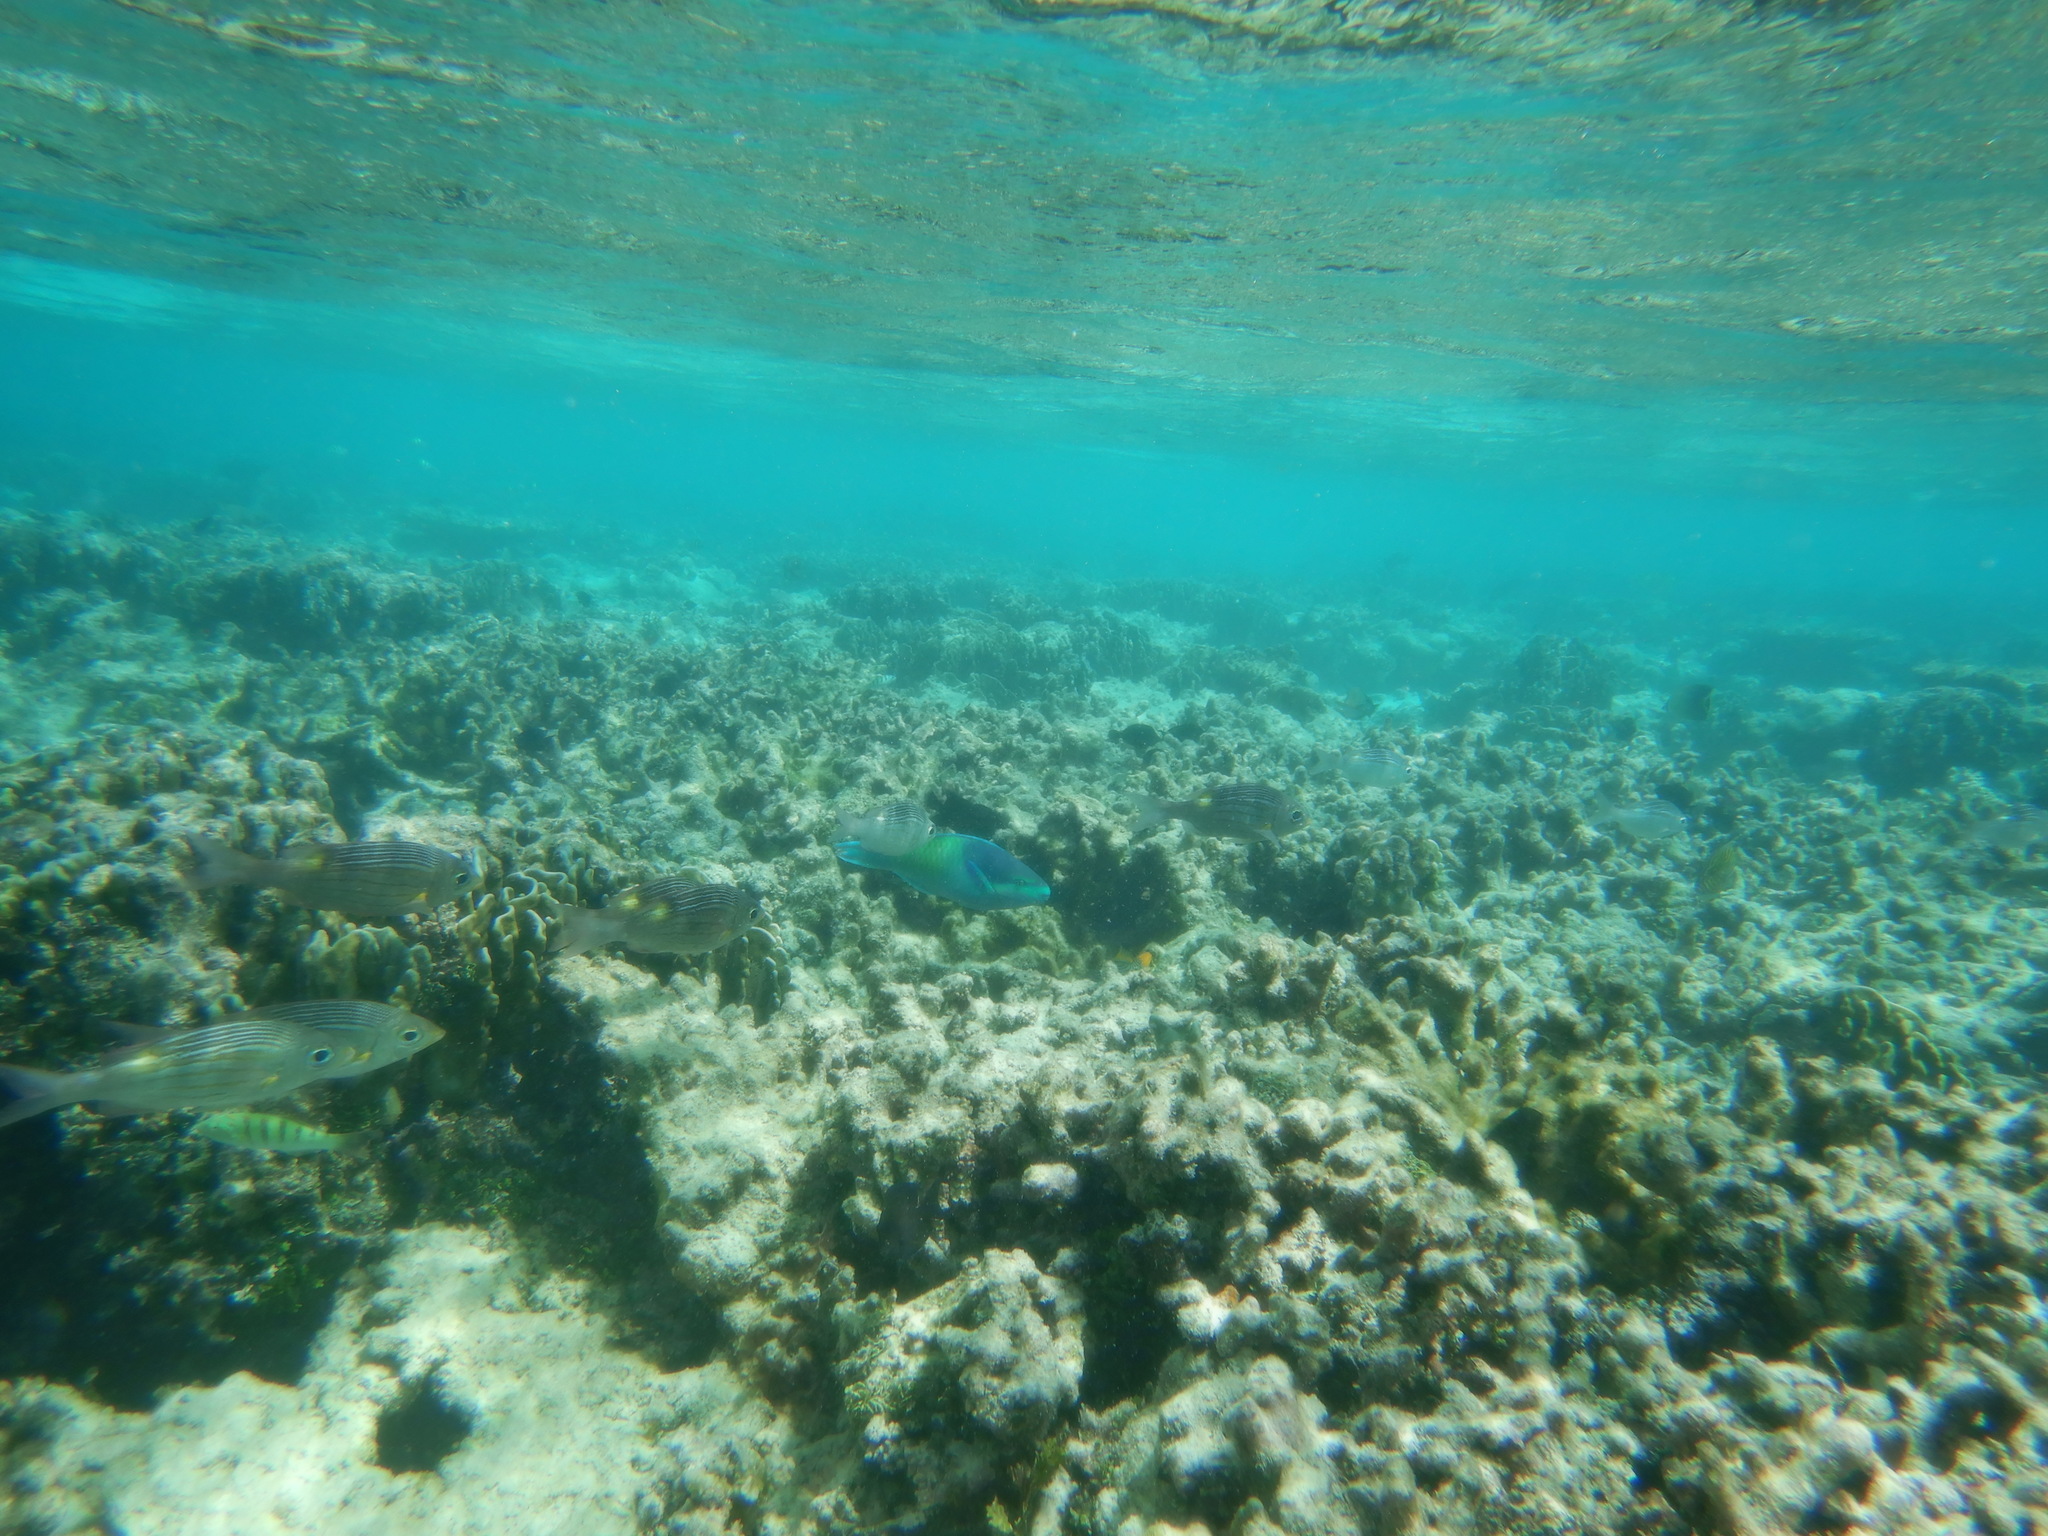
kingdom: Animalia
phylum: Chordata
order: Perciformes
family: Lethrinidae
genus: Gnathodentex
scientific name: Gnathodentex aureolineatus
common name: Gold-lined sea bream
